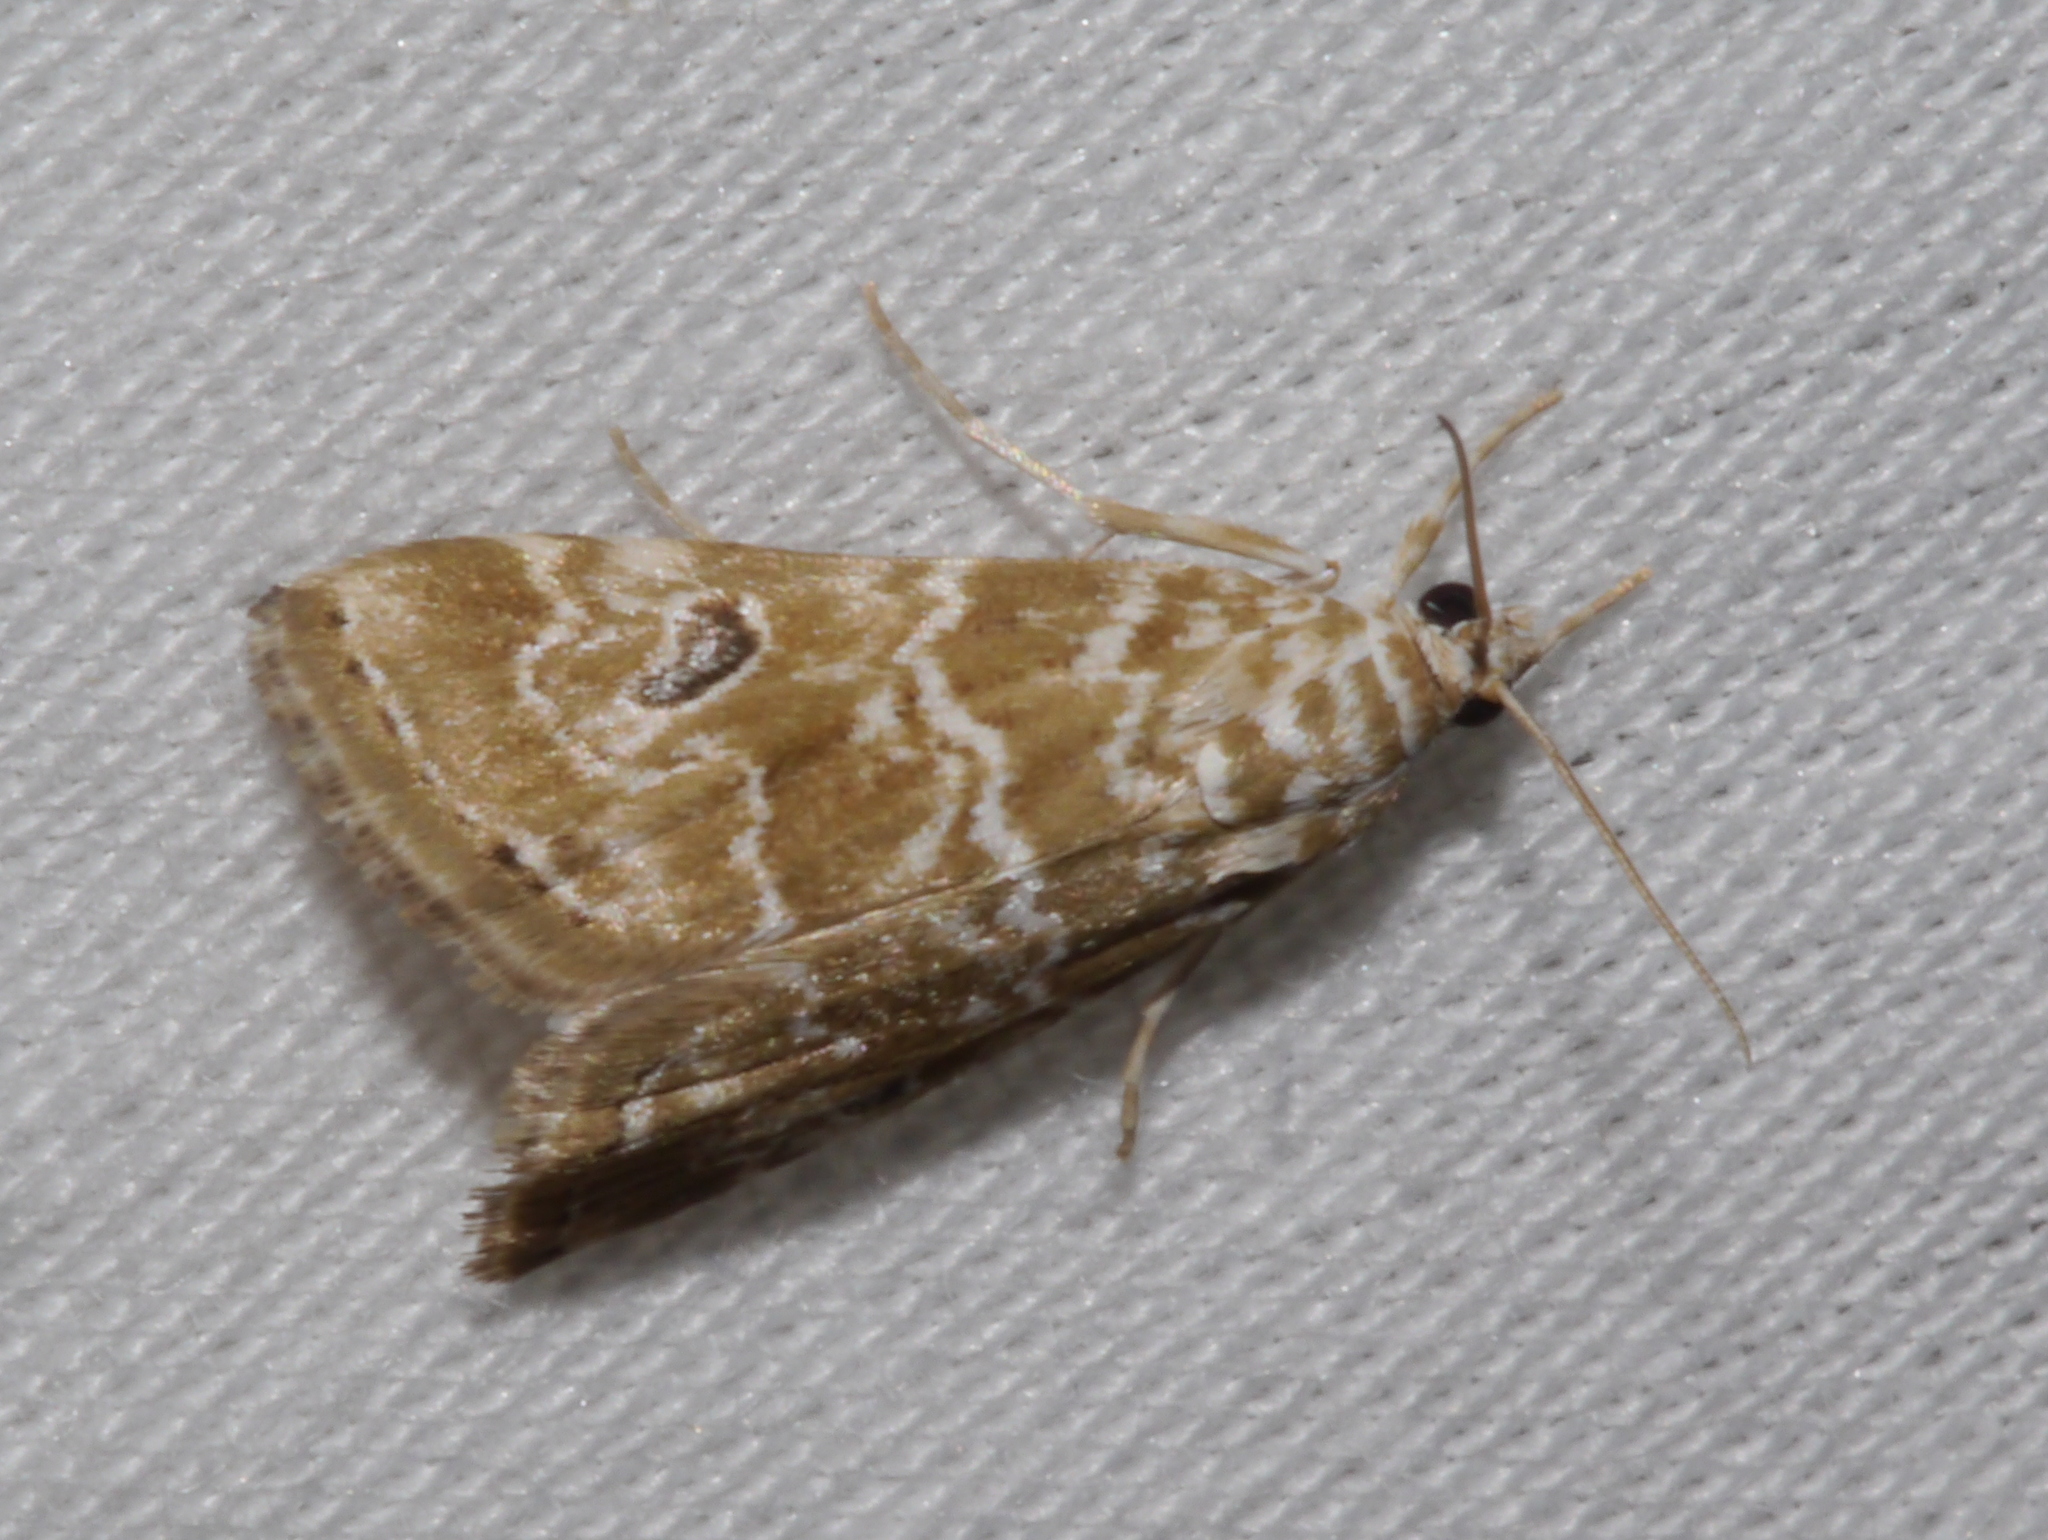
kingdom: Animalia
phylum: Arthropoda
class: Insecta
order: Lepidoptera
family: Crambidae
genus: Hellula
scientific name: Hellula rogatalis
